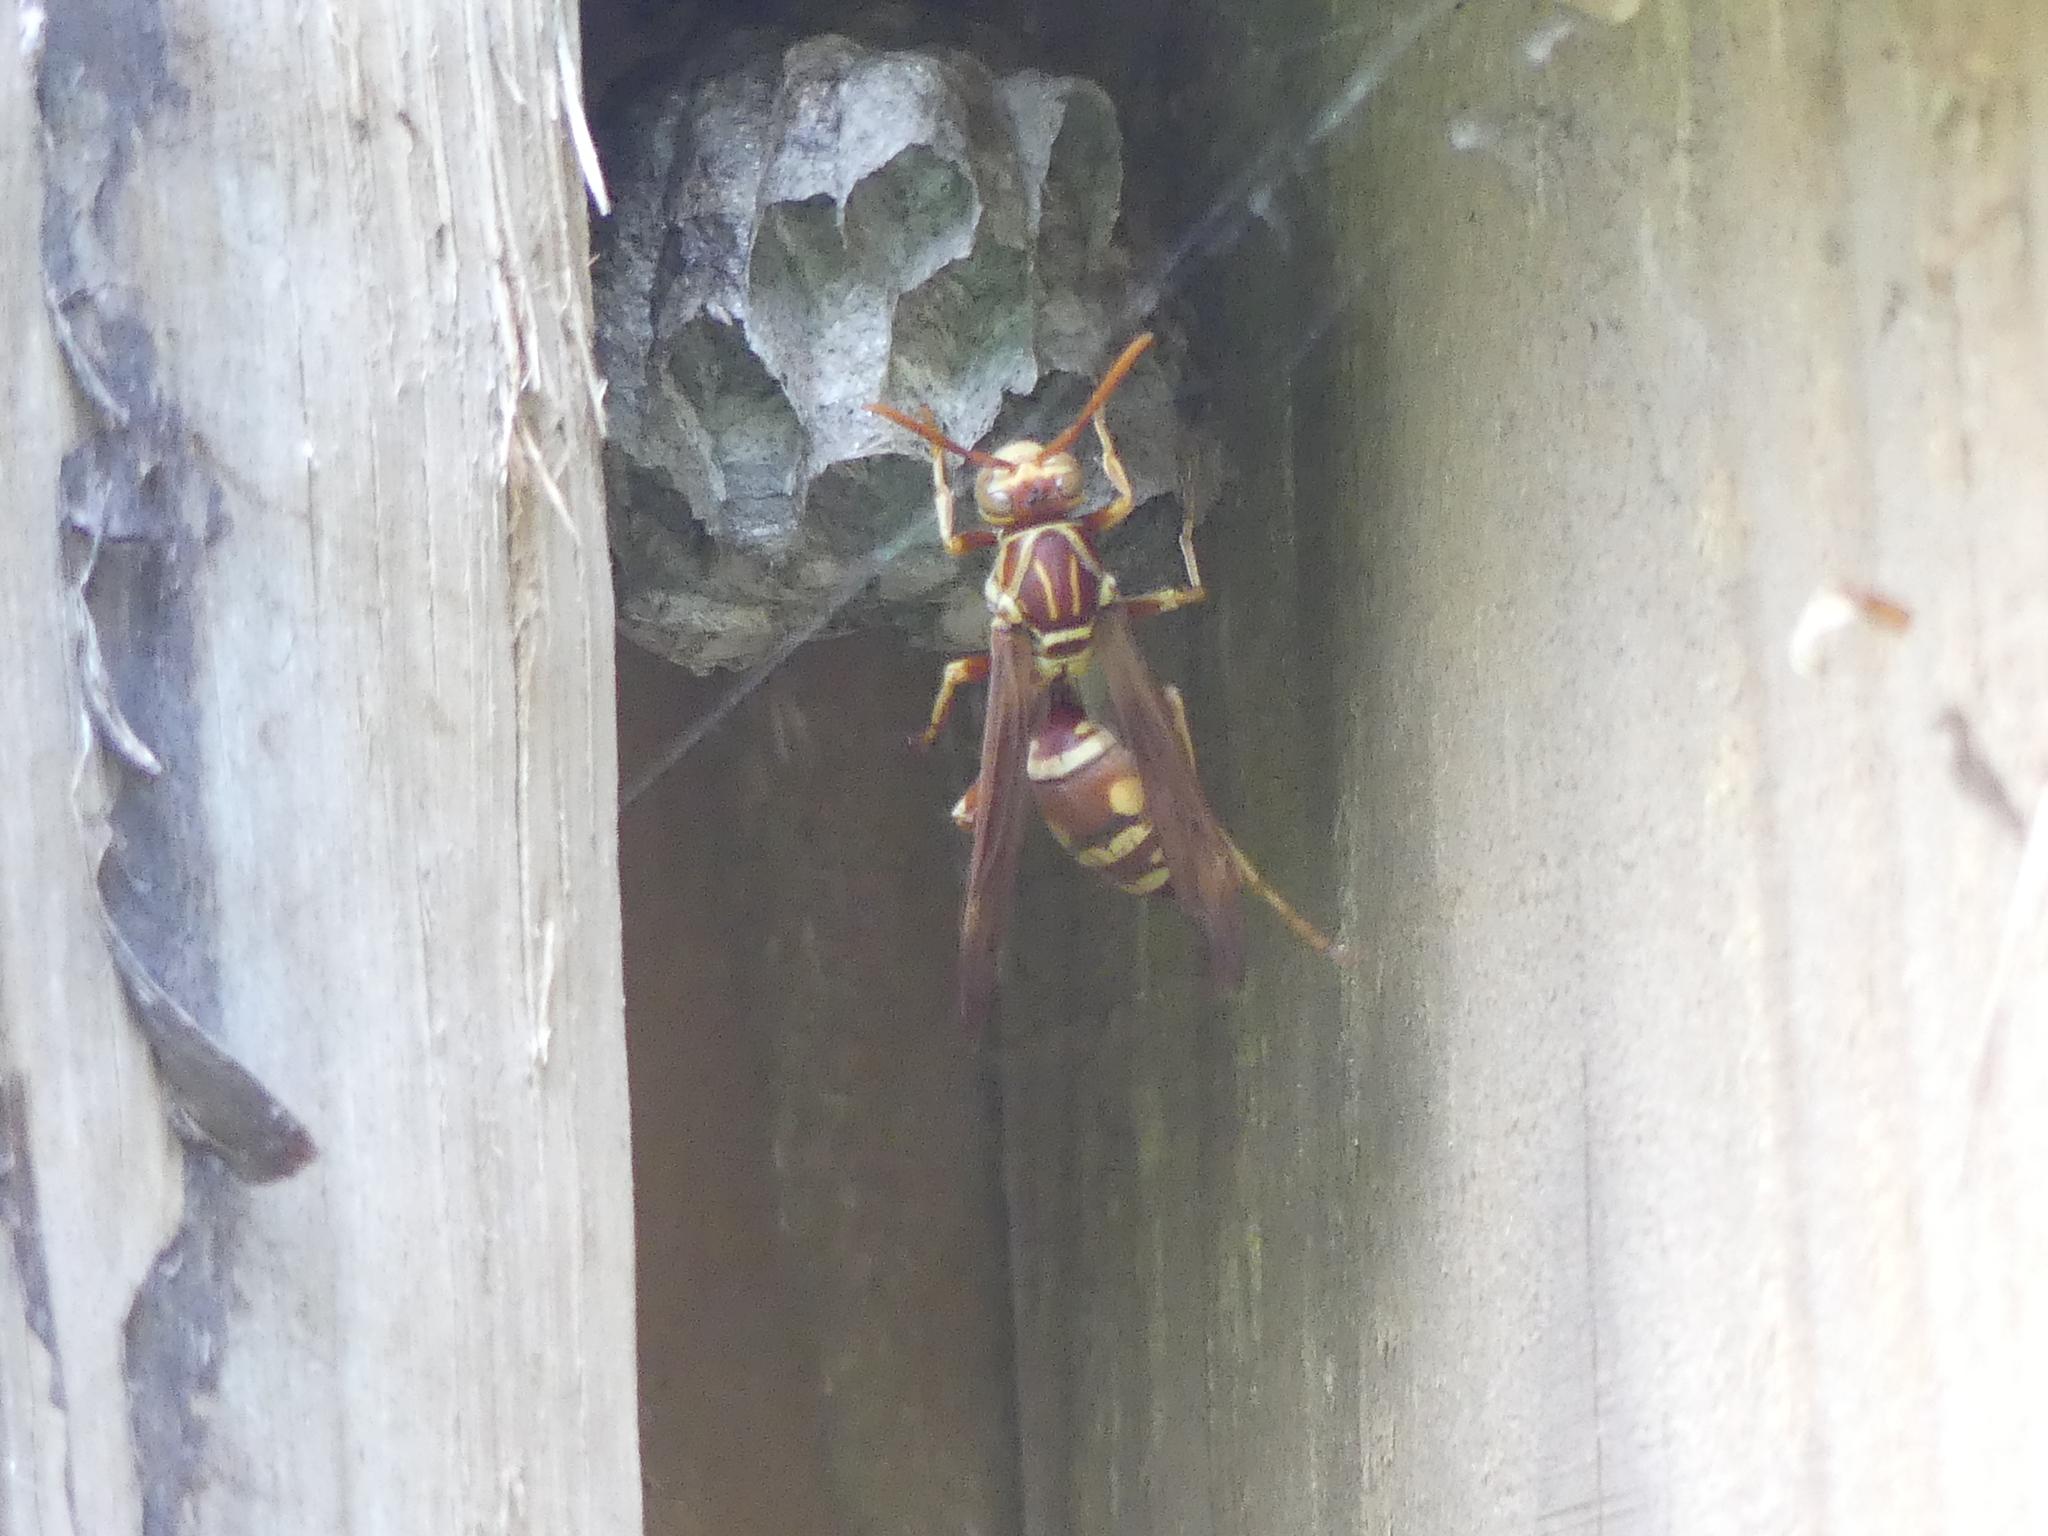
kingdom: Animalia
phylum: Arthropoda
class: Insecta
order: Hymenoptera
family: Eumenidae
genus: Polistes
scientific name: Polistes apachus
